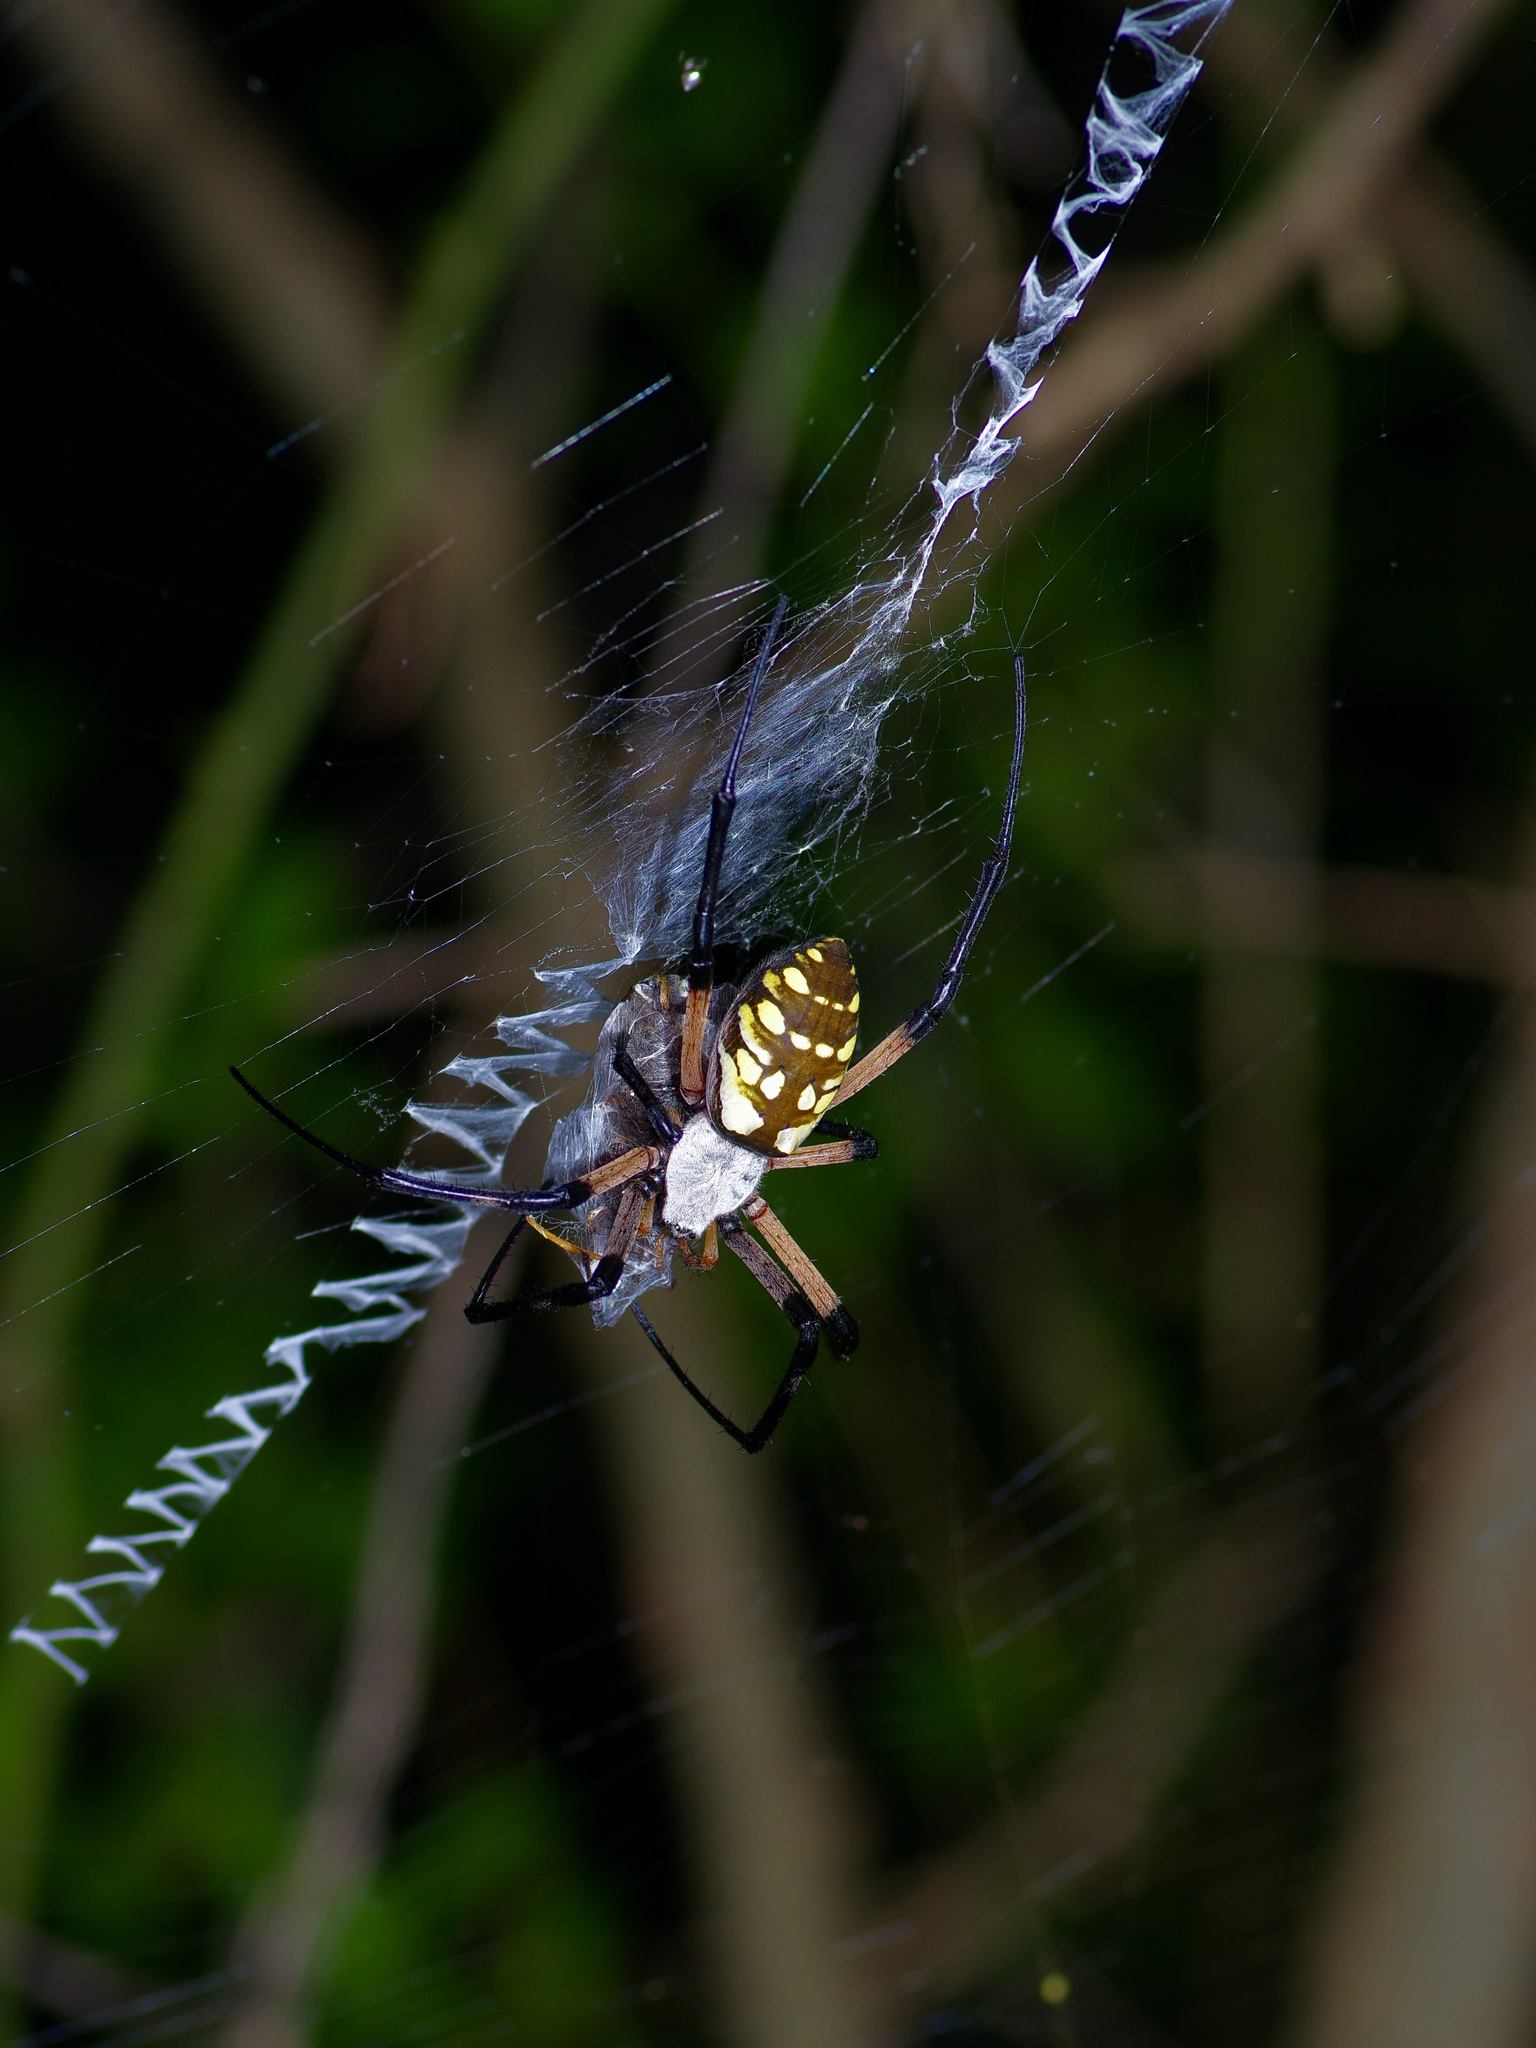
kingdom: Animalia
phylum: Arthropoda
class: Arachnida
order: Araneae
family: Araneidae
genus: Argiope
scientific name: Argiope aurantia
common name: Orb weavers
